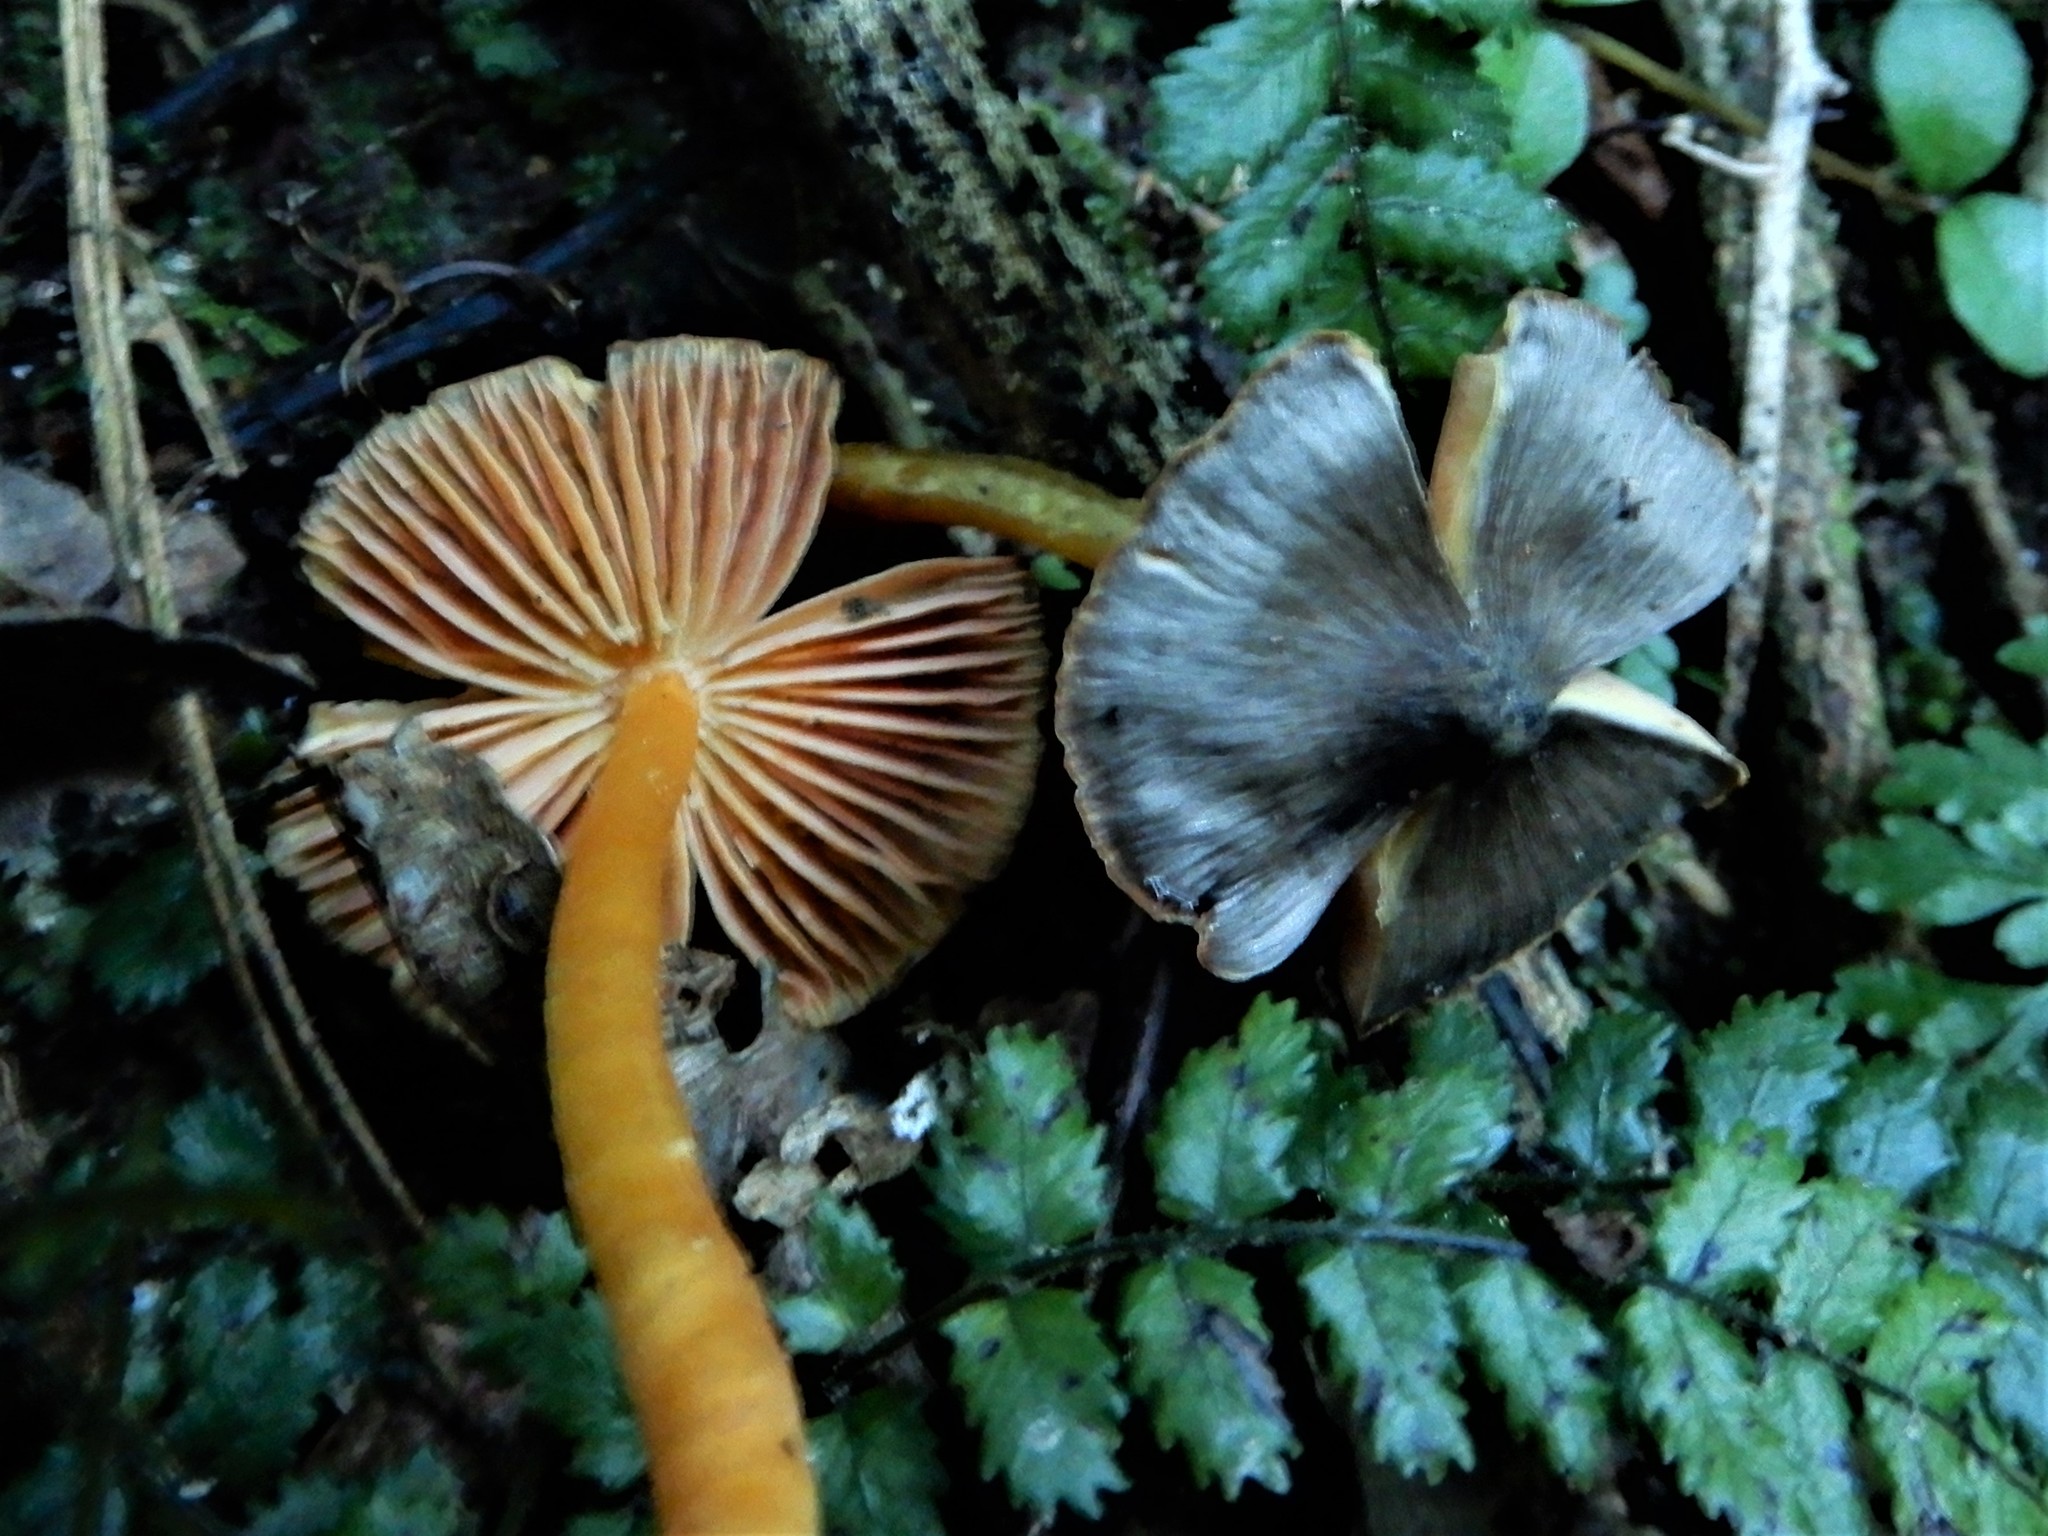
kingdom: Fungi
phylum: Basidiomycota
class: Agaricomycetes
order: Agaricales
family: Hygrophoraceae
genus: Hygrocybe
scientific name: Hygrocybe astatogala
